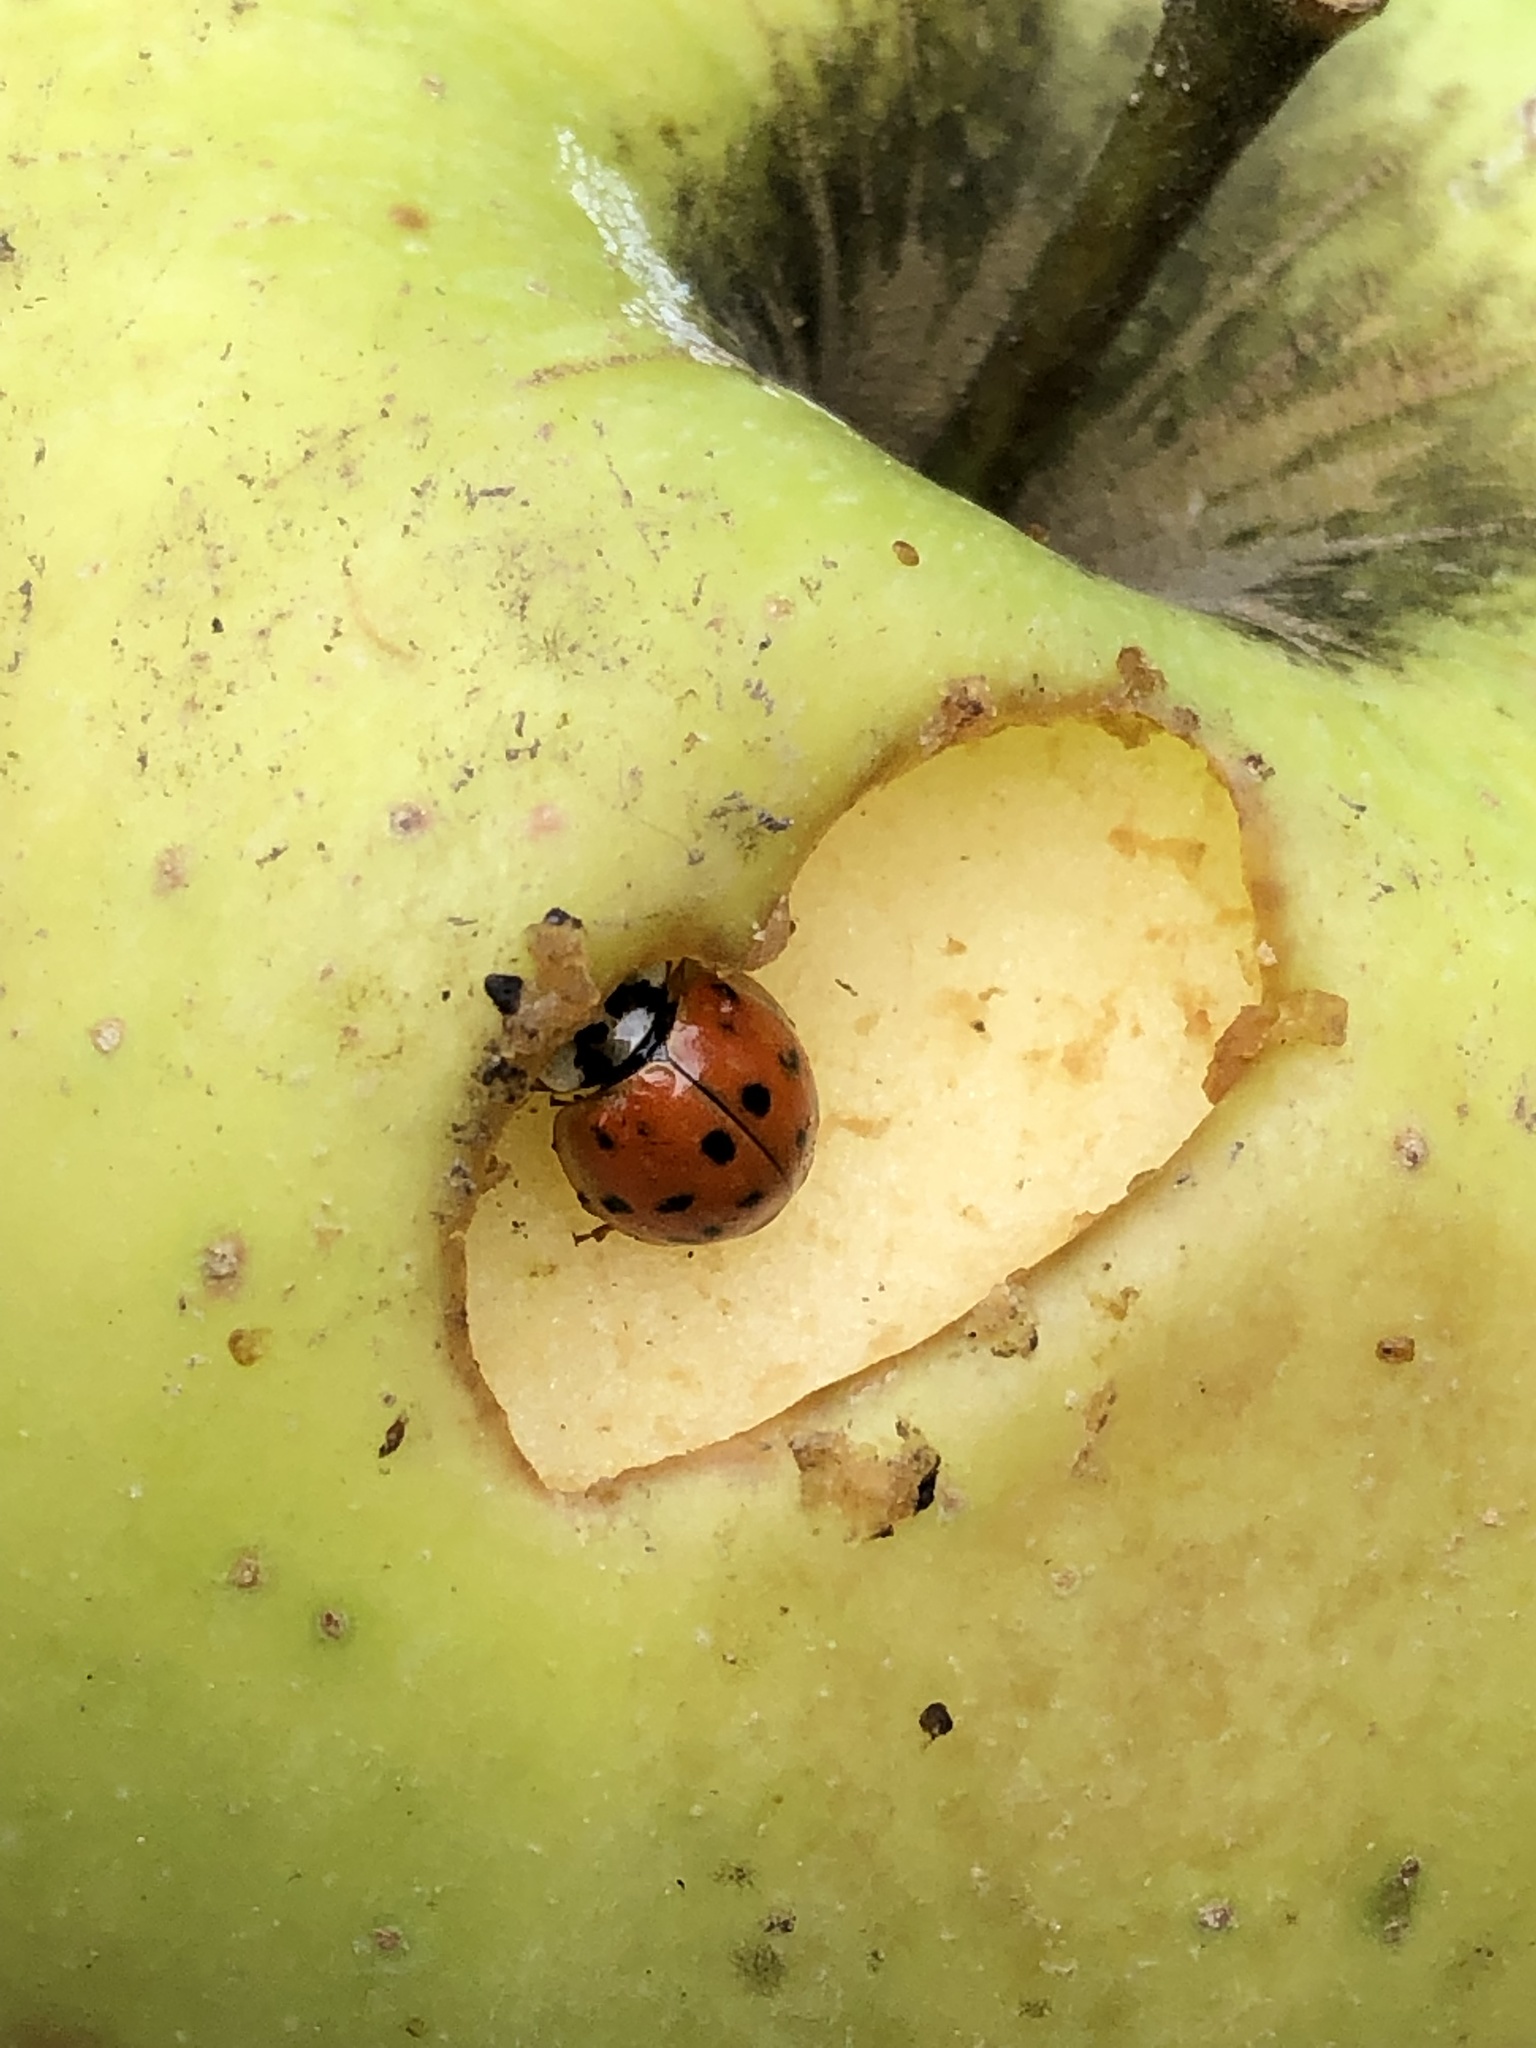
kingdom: Animalia
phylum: Arthropoda
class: Insecta
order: Coleoptera
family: Coccinellidae
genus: Harmonia
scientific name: Harmonia axyridis
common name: Harlequin ladybird
